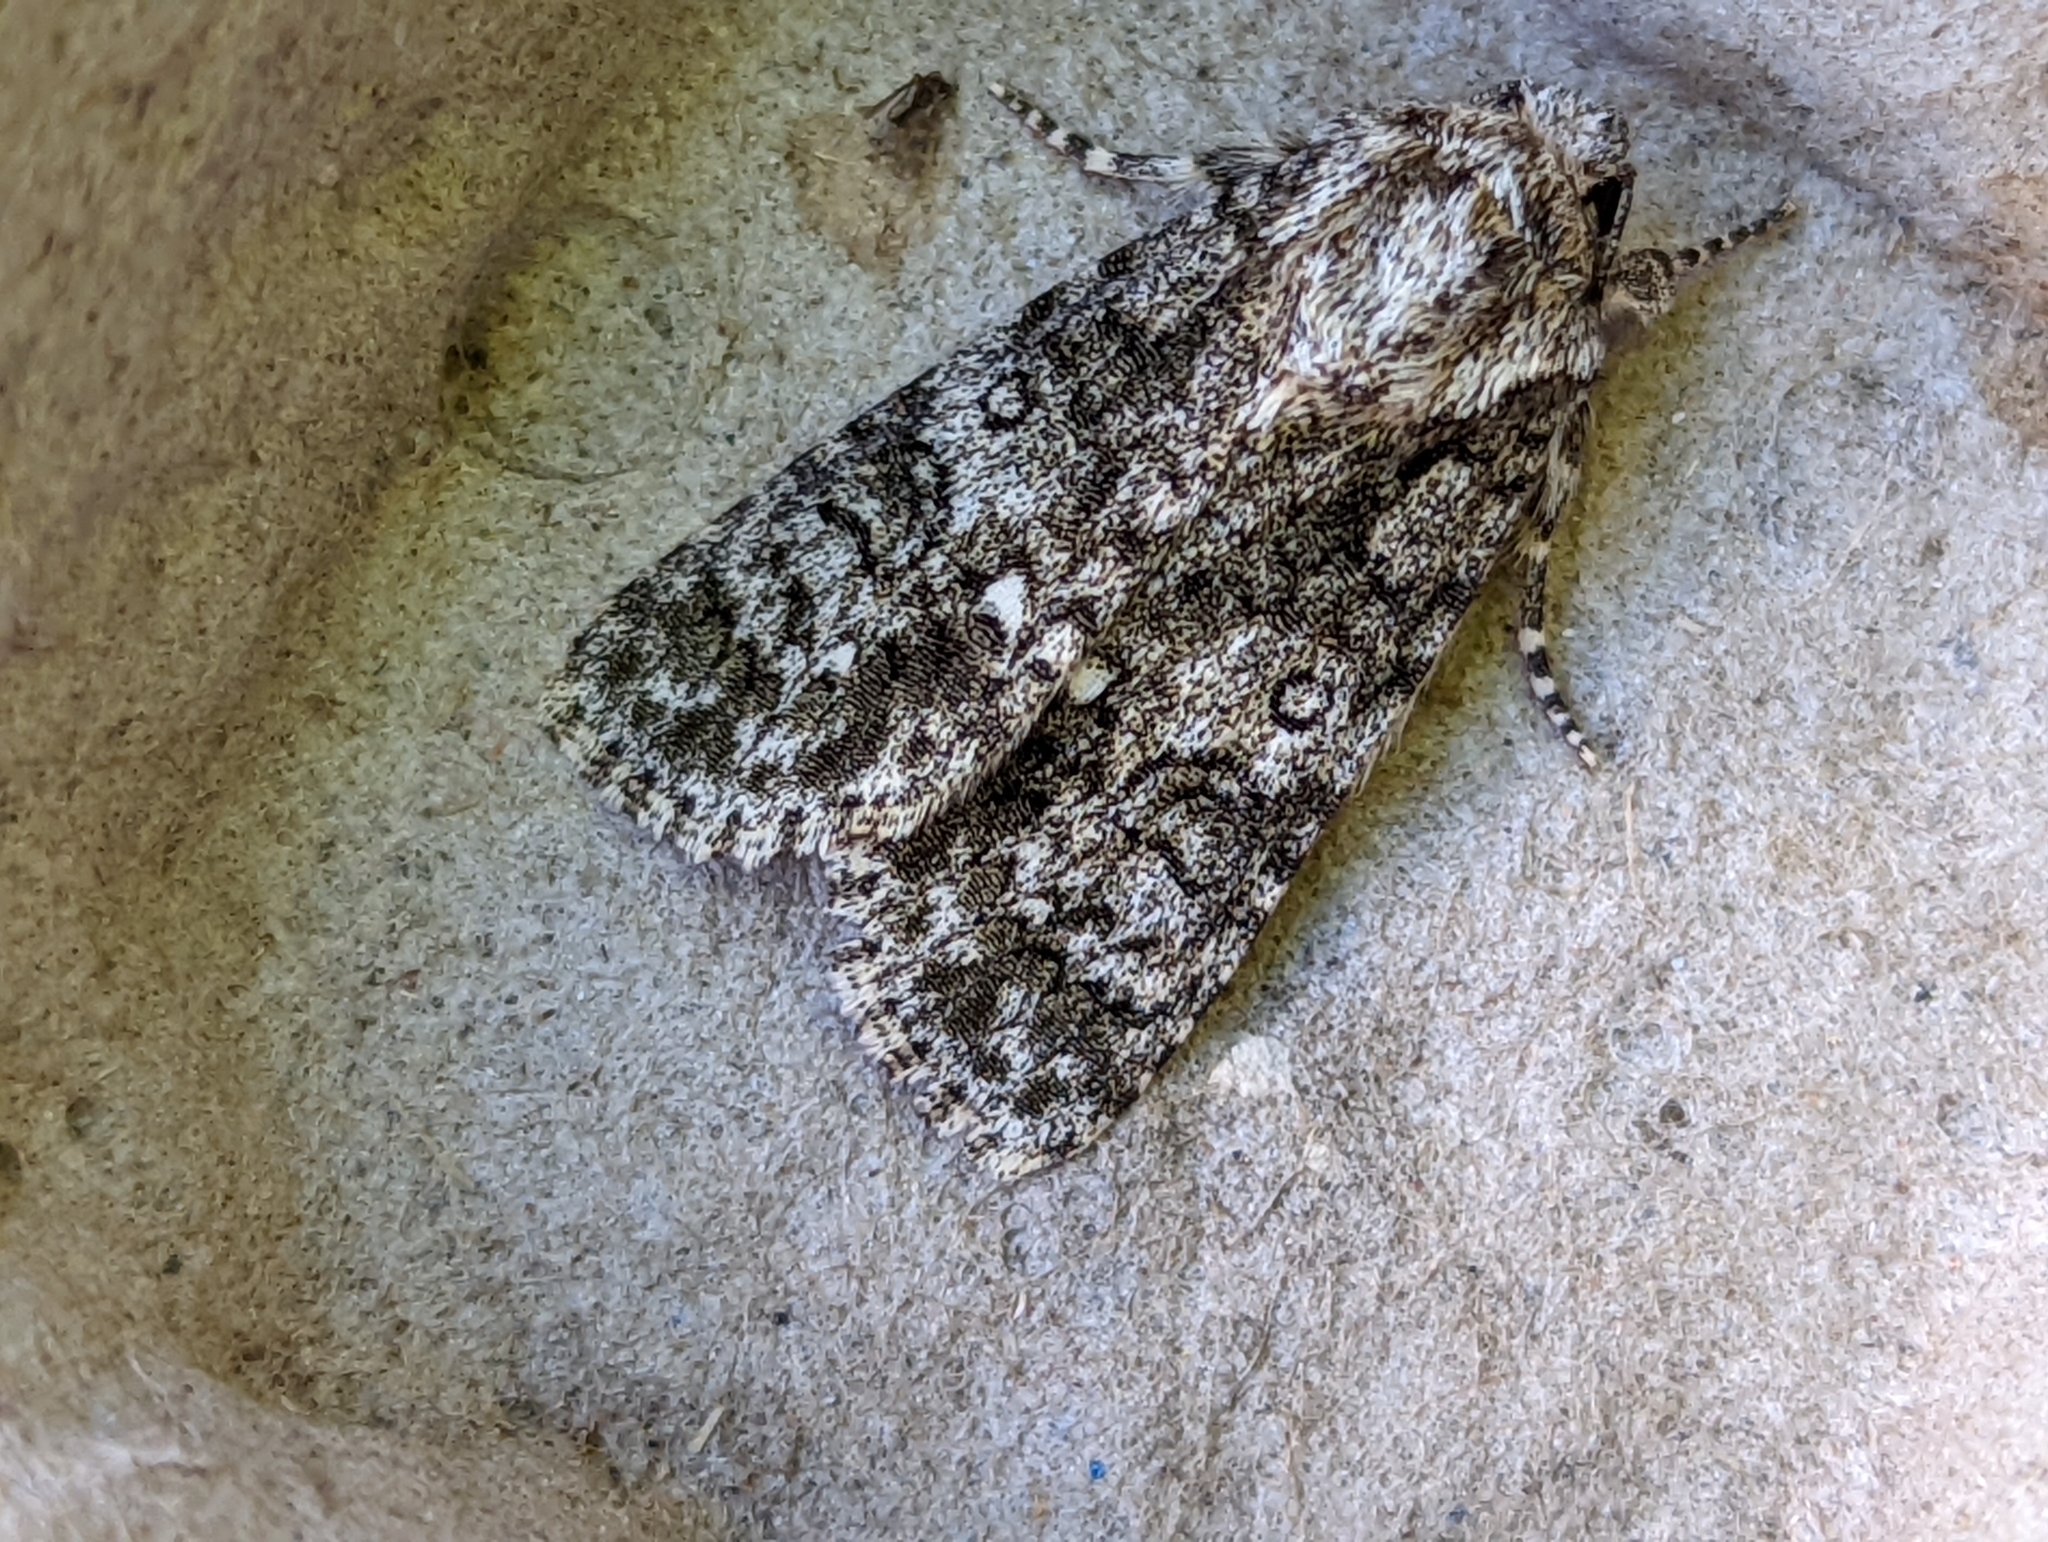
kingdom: Animalia
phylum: Arthropoda
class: Insecta
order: Lepidoptera
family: Noctuidae
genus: Acronicta
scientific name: Acronicta rumicis
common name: Knot grass
